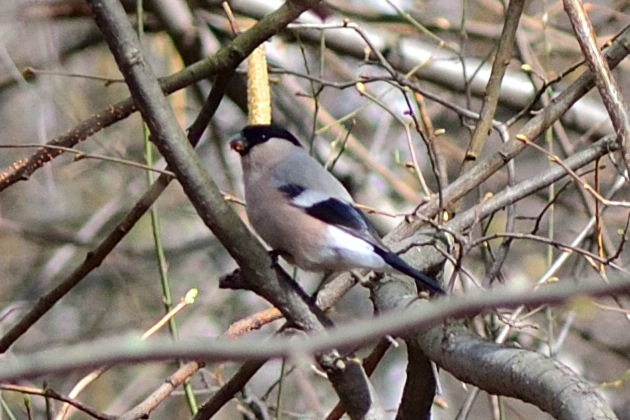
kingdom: Animalia
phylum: Chordata
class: Aves
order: Passeriformes
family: Fringillidae
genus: Pyrrhula
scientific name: Pyrrhula pyrrhula
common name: Eurasian bullfinch
